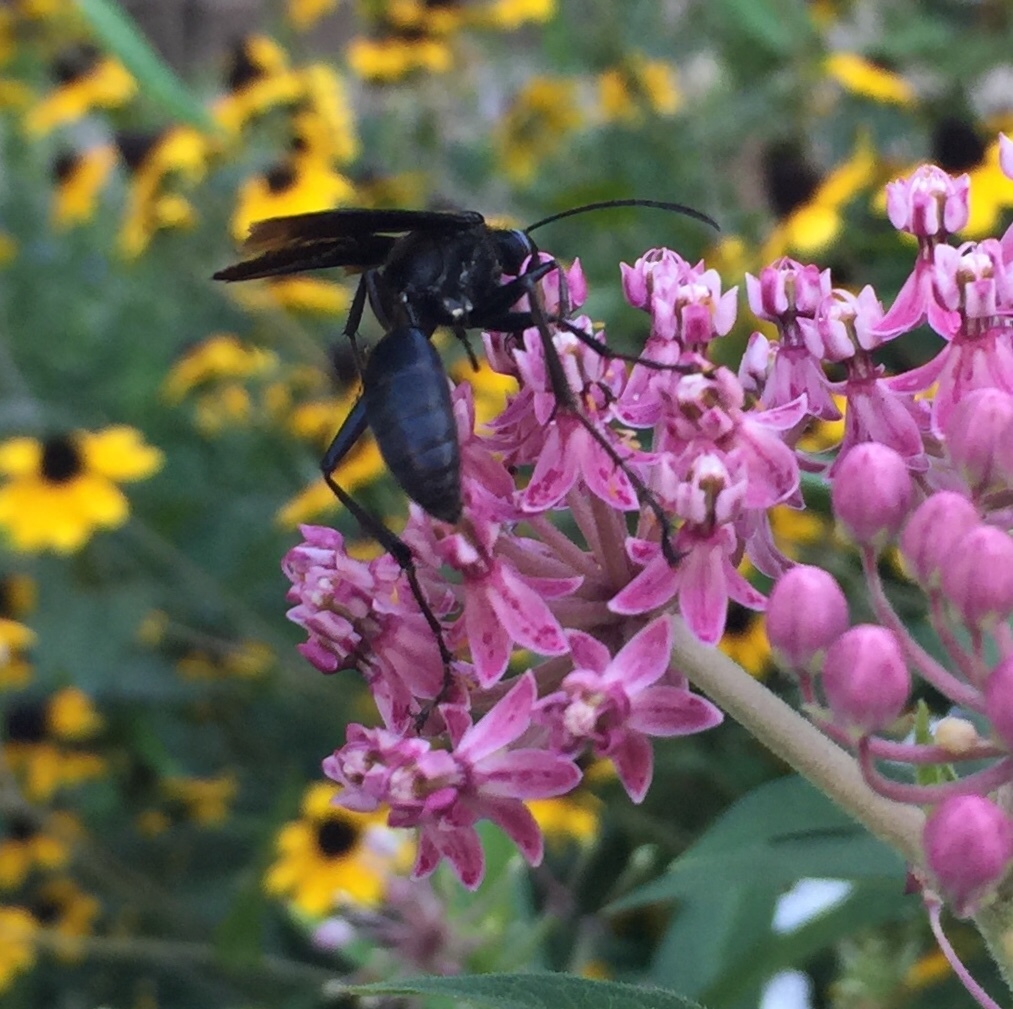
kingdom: Animalia
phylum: Arthropoda
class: Insecta
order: Hymenoptera
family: Sphecidae
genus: Sphex
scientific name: Sphex pensylvanicus
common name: Great black digger wasp
